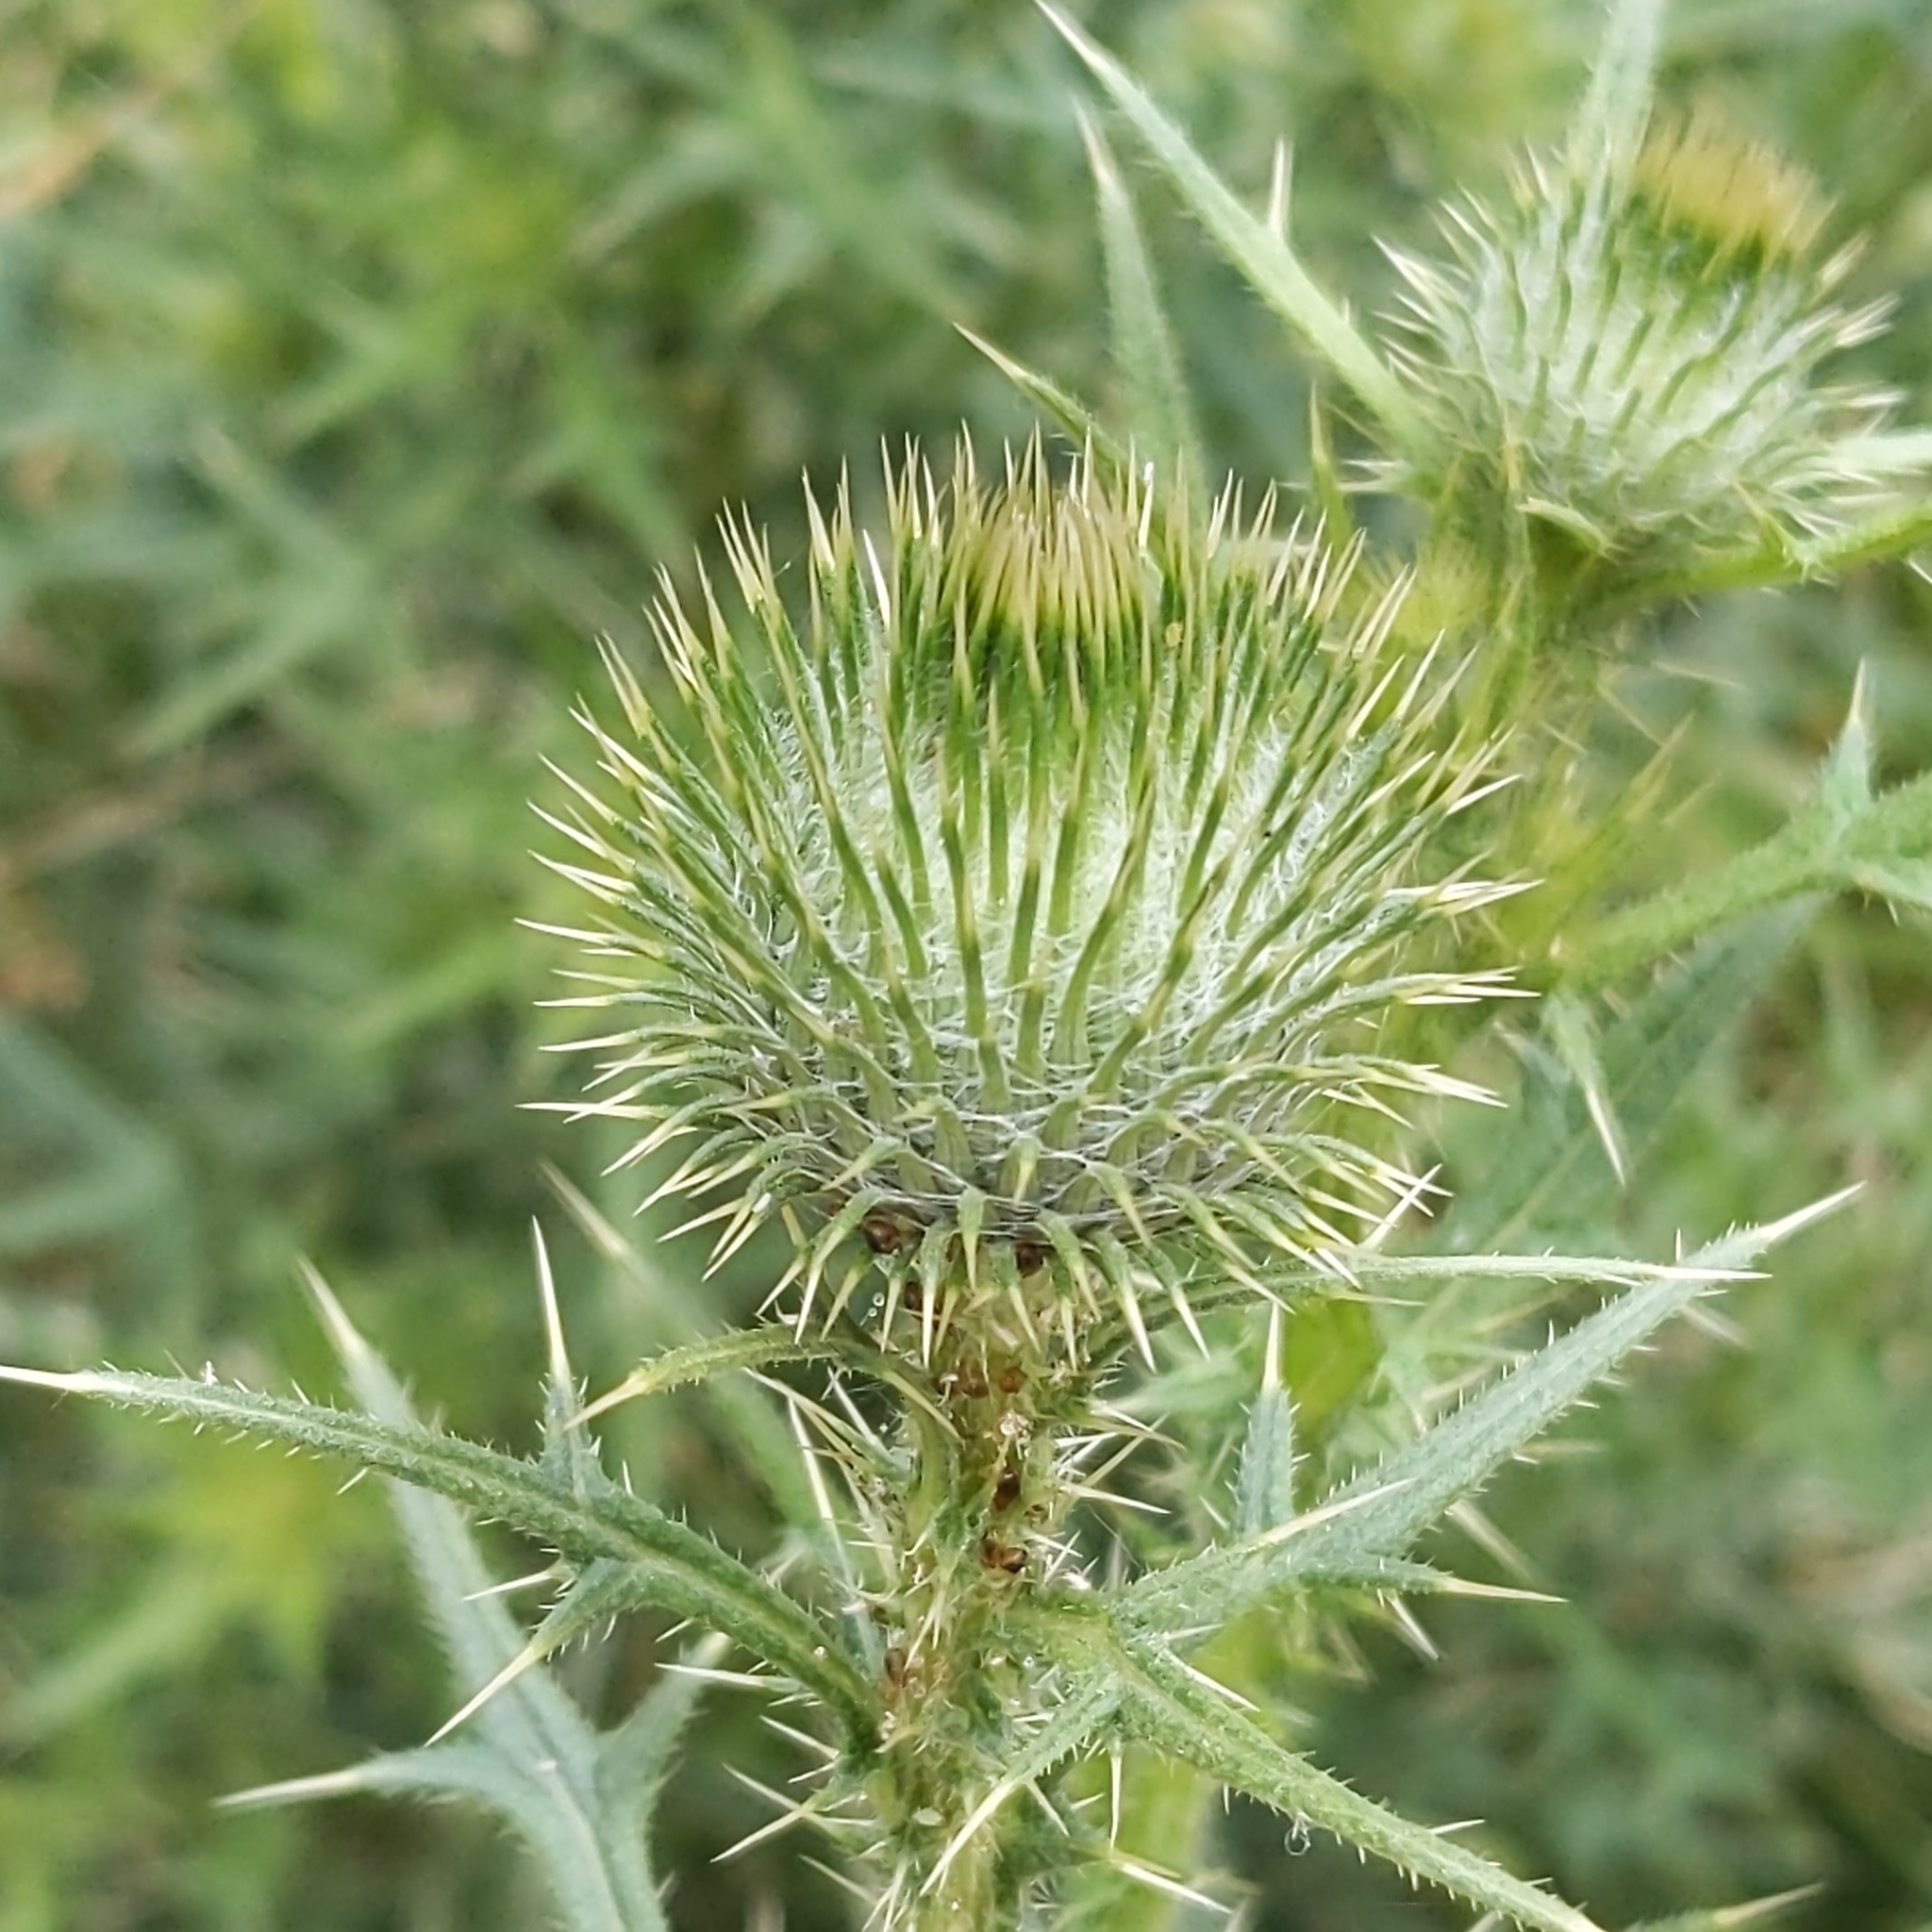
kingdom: Plantae
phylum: Tracheophyta
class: Magnoliopsida
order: Asterales
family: Asteraceae
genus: Cirsium
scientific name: Cirsium vulgare
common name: Bull thistle
